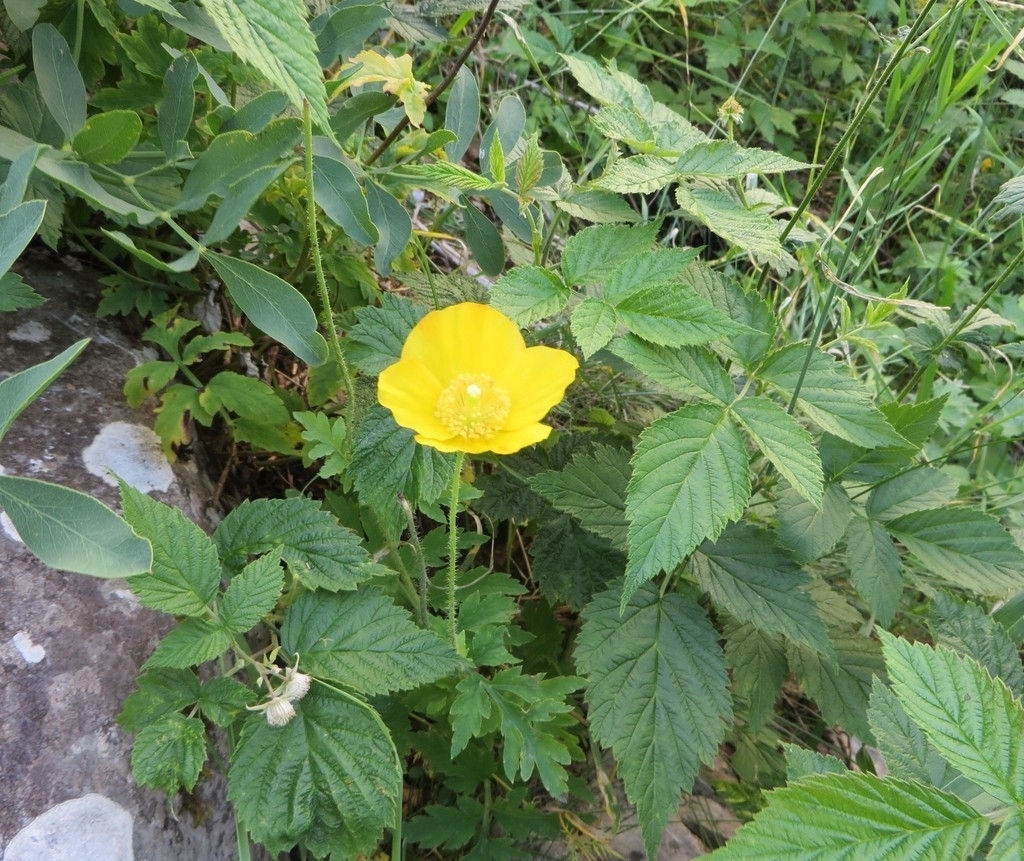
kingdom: Plantae
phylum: Tracheophyta
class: Magnoliopsida
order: Ranunculales
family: Papaveraceae
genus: Papaver
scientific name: Papaver cambricum
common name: Poppy
